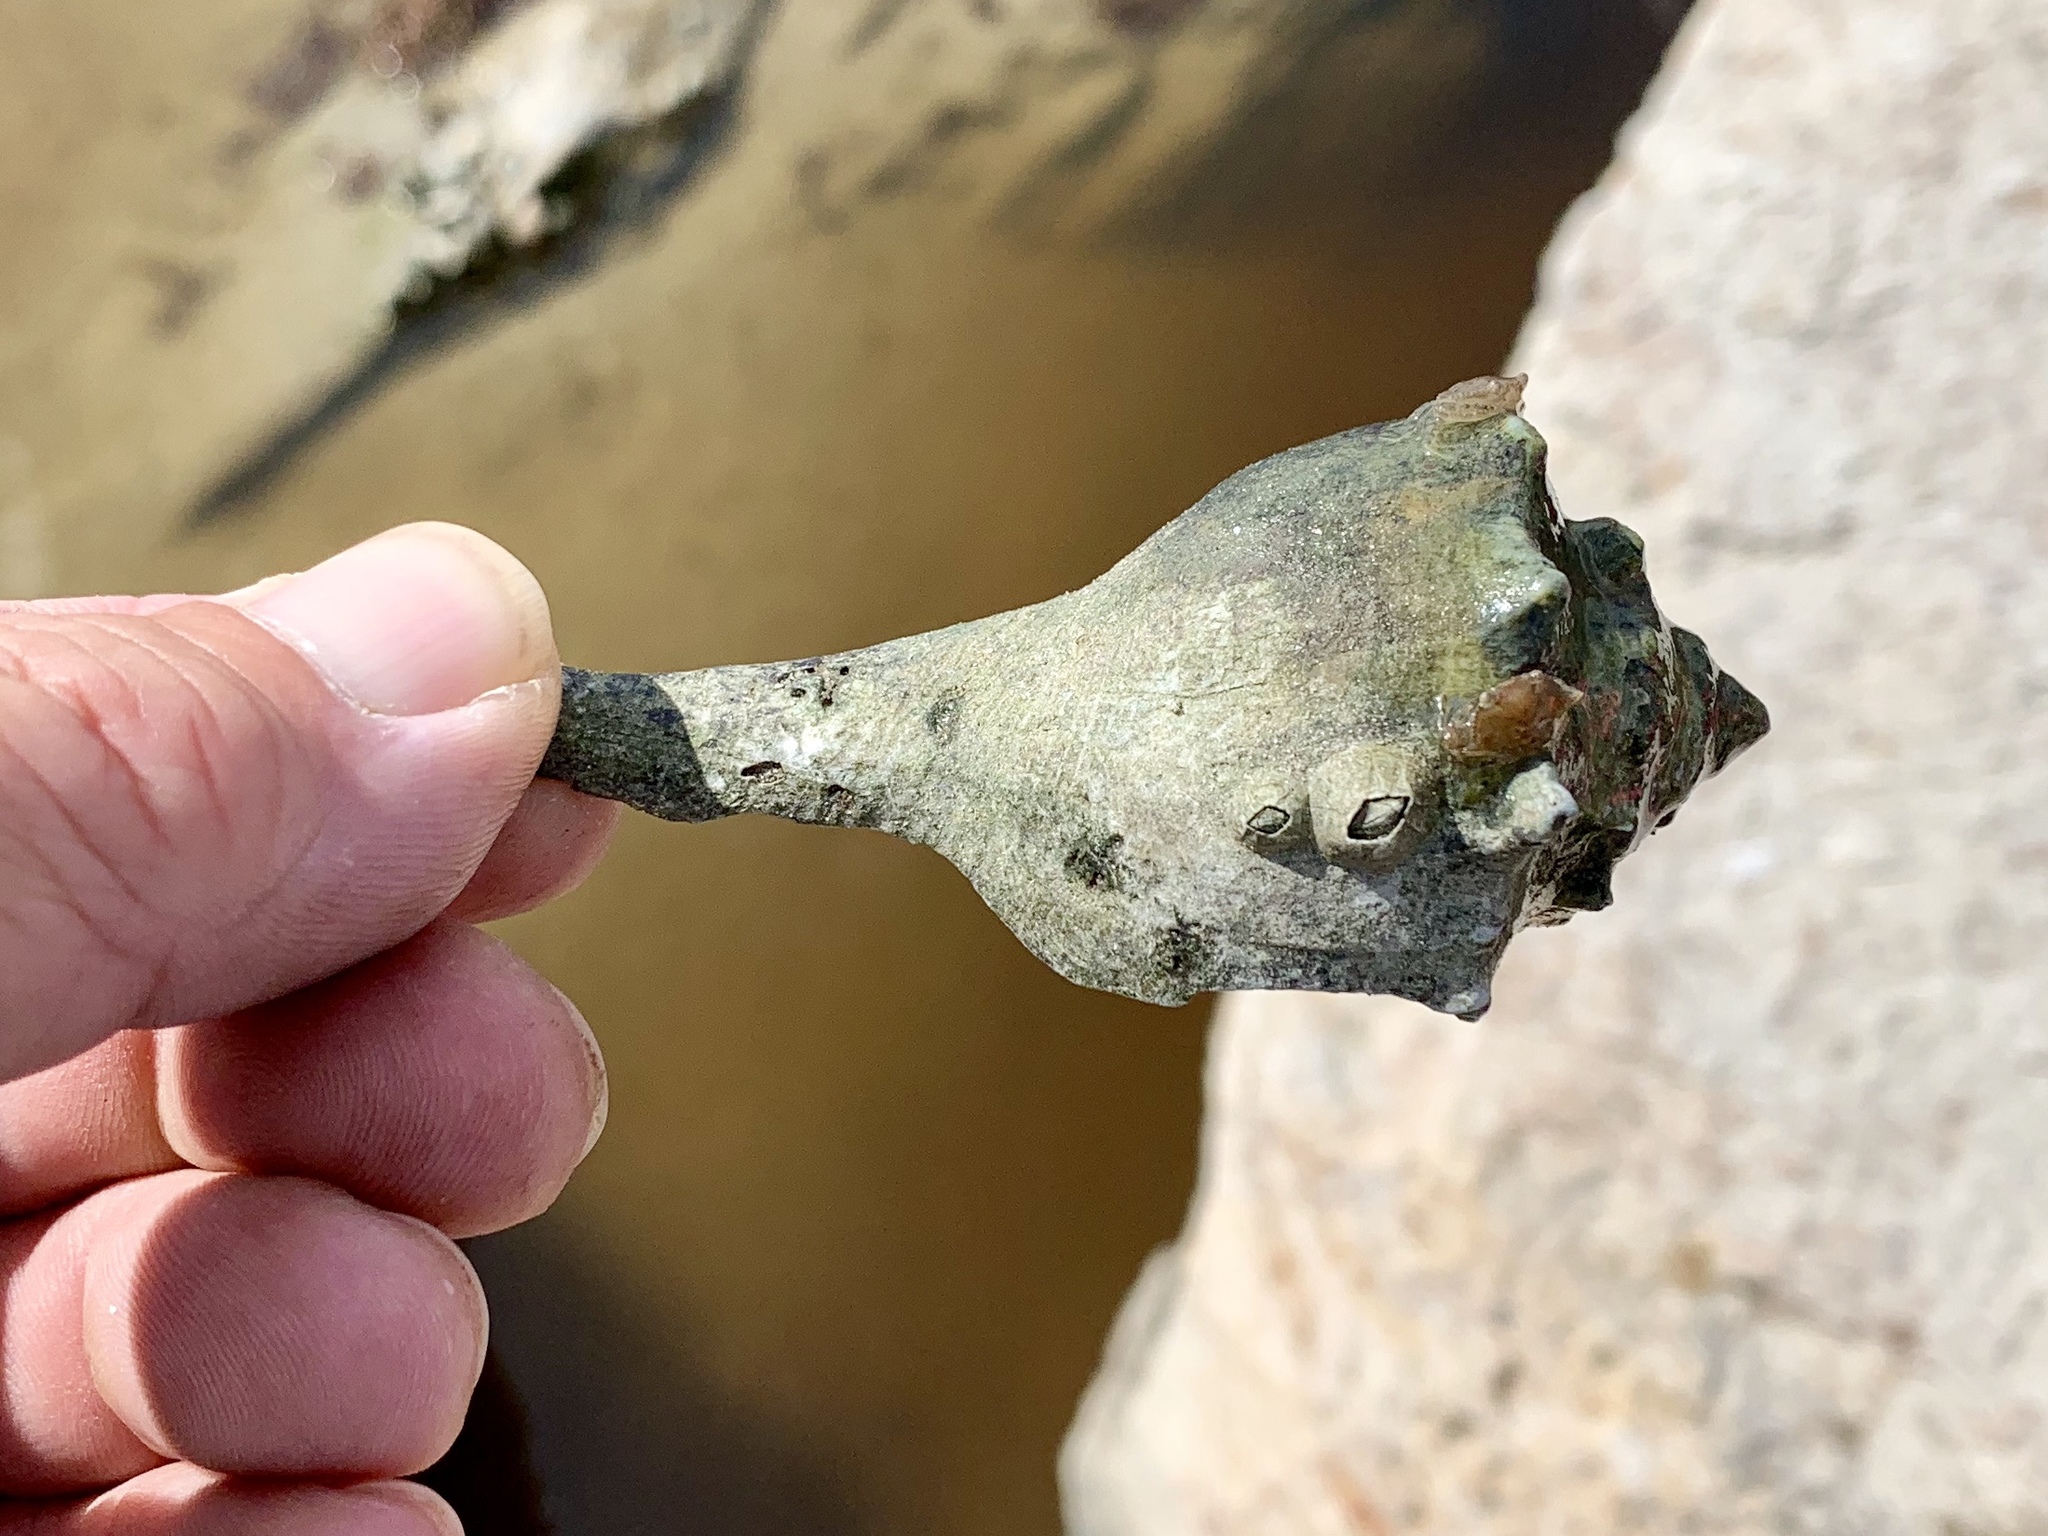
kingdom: Animalia
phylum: Mollusca
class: Gastropoda
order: Neogastropoda
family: Busyconidae
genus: Sinistrofulgur
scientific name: Sinistrofulgur pulleyi
